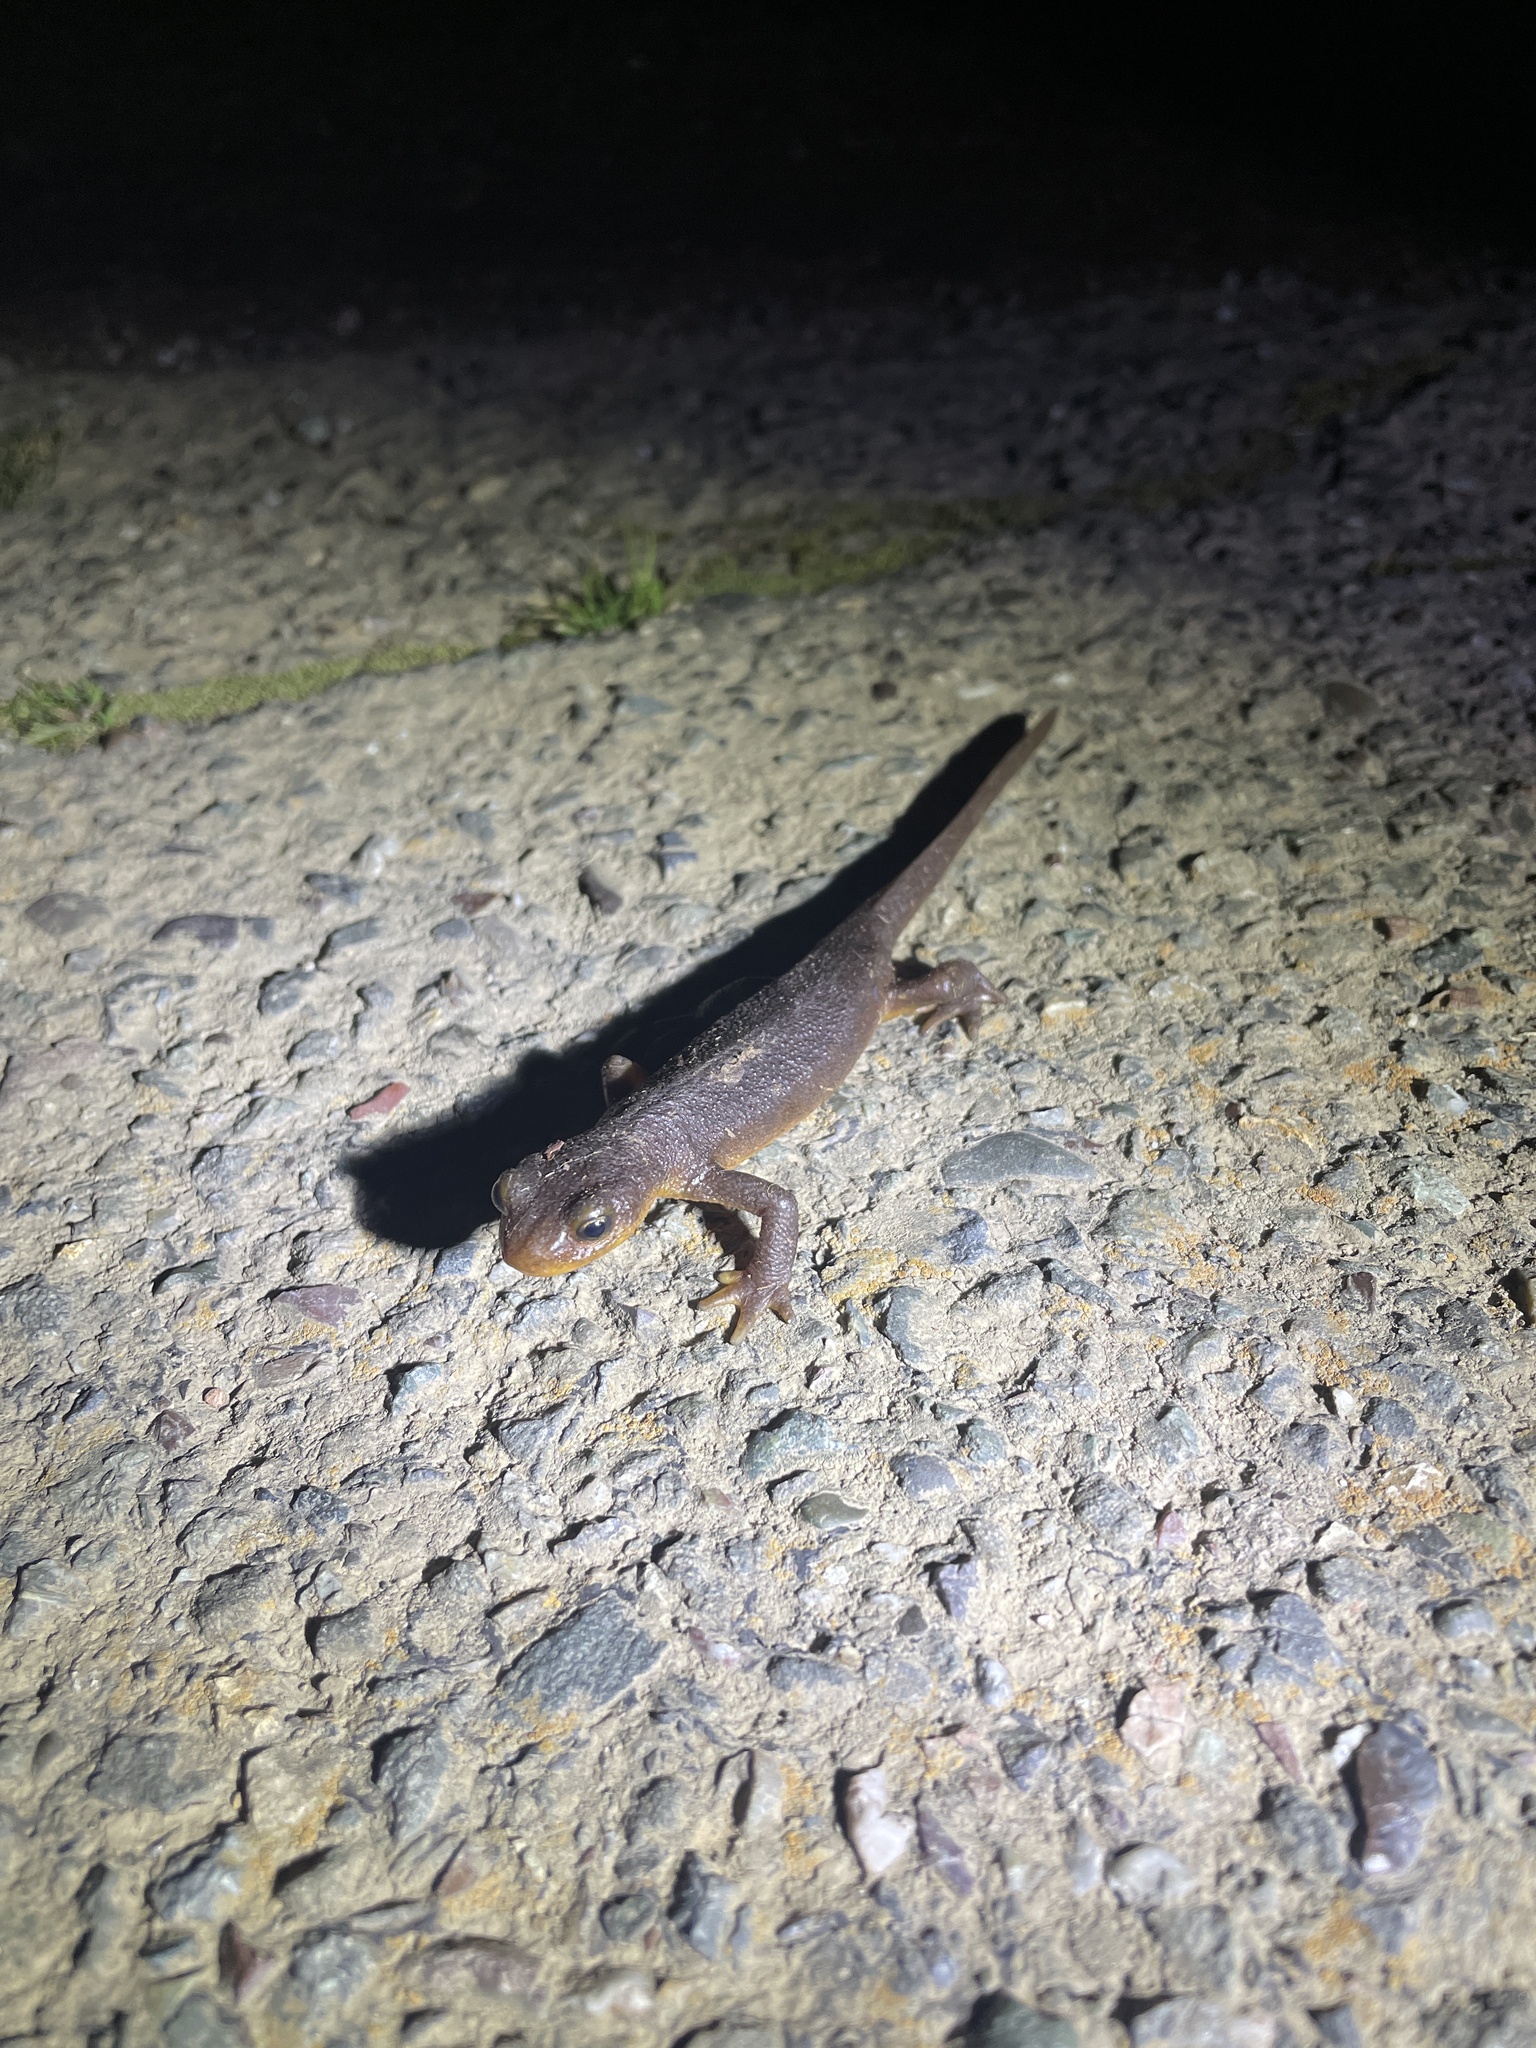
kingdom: Animalia
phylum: Chordata
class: Amphibia
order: Caudata
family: Salamandridae
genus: Taricha
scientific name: Taricha torosa
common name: California newt
